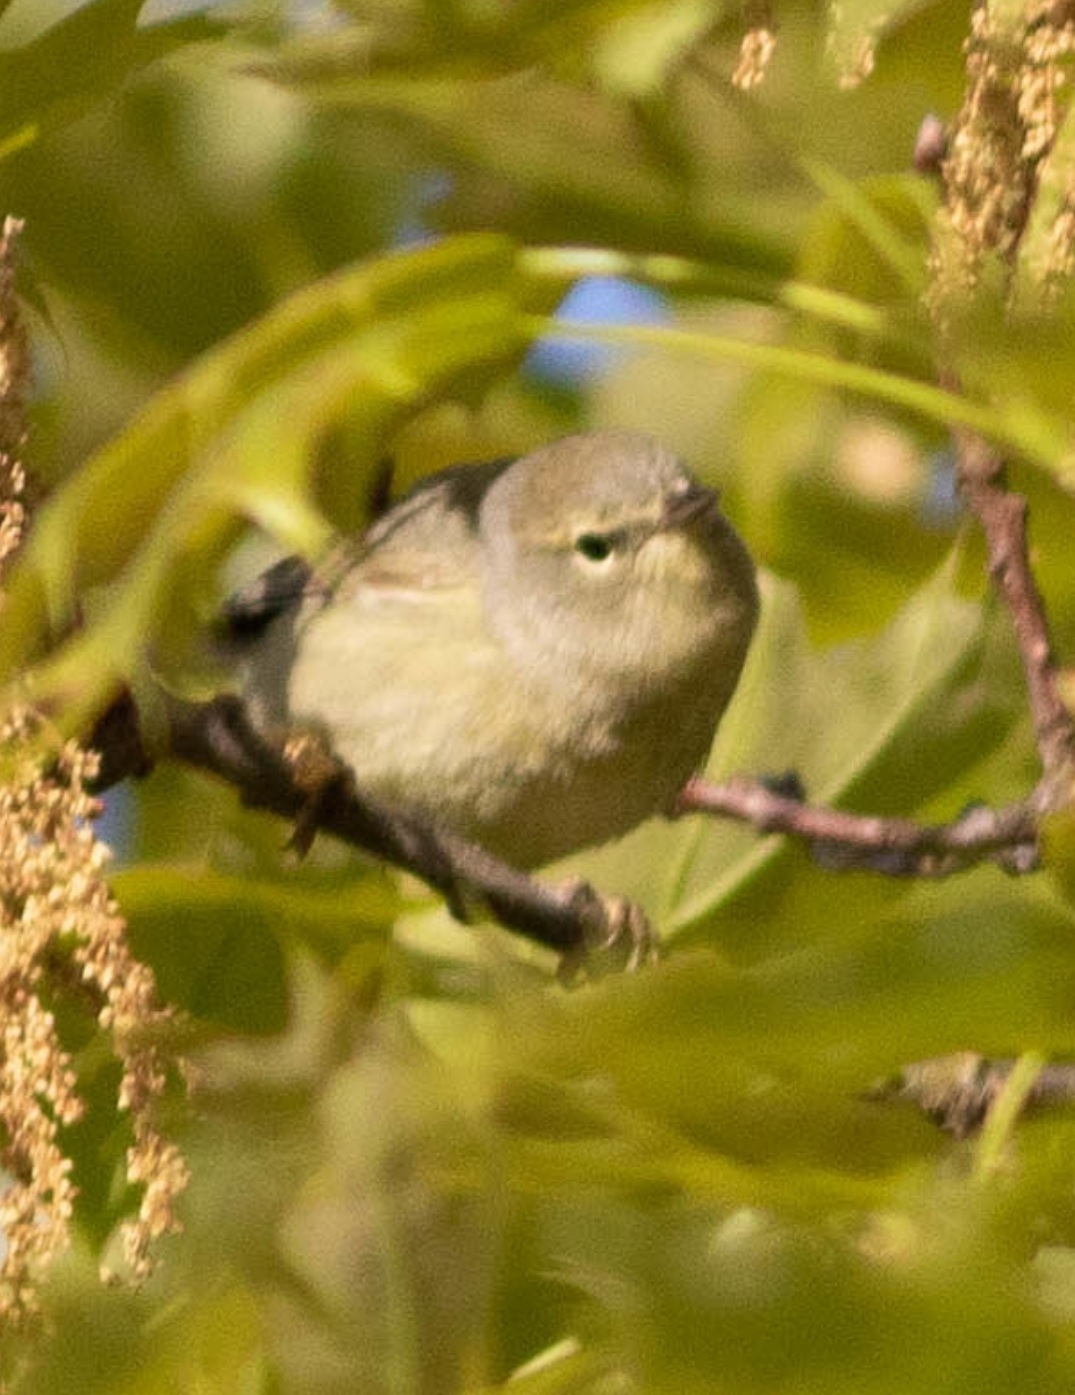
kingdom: Animalia
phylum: Chordata
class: Aves
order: Passeriformes
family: Parulidae
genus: Leiothlypis
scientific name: Leiothlypis celata
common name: Orange-crowned warbler
